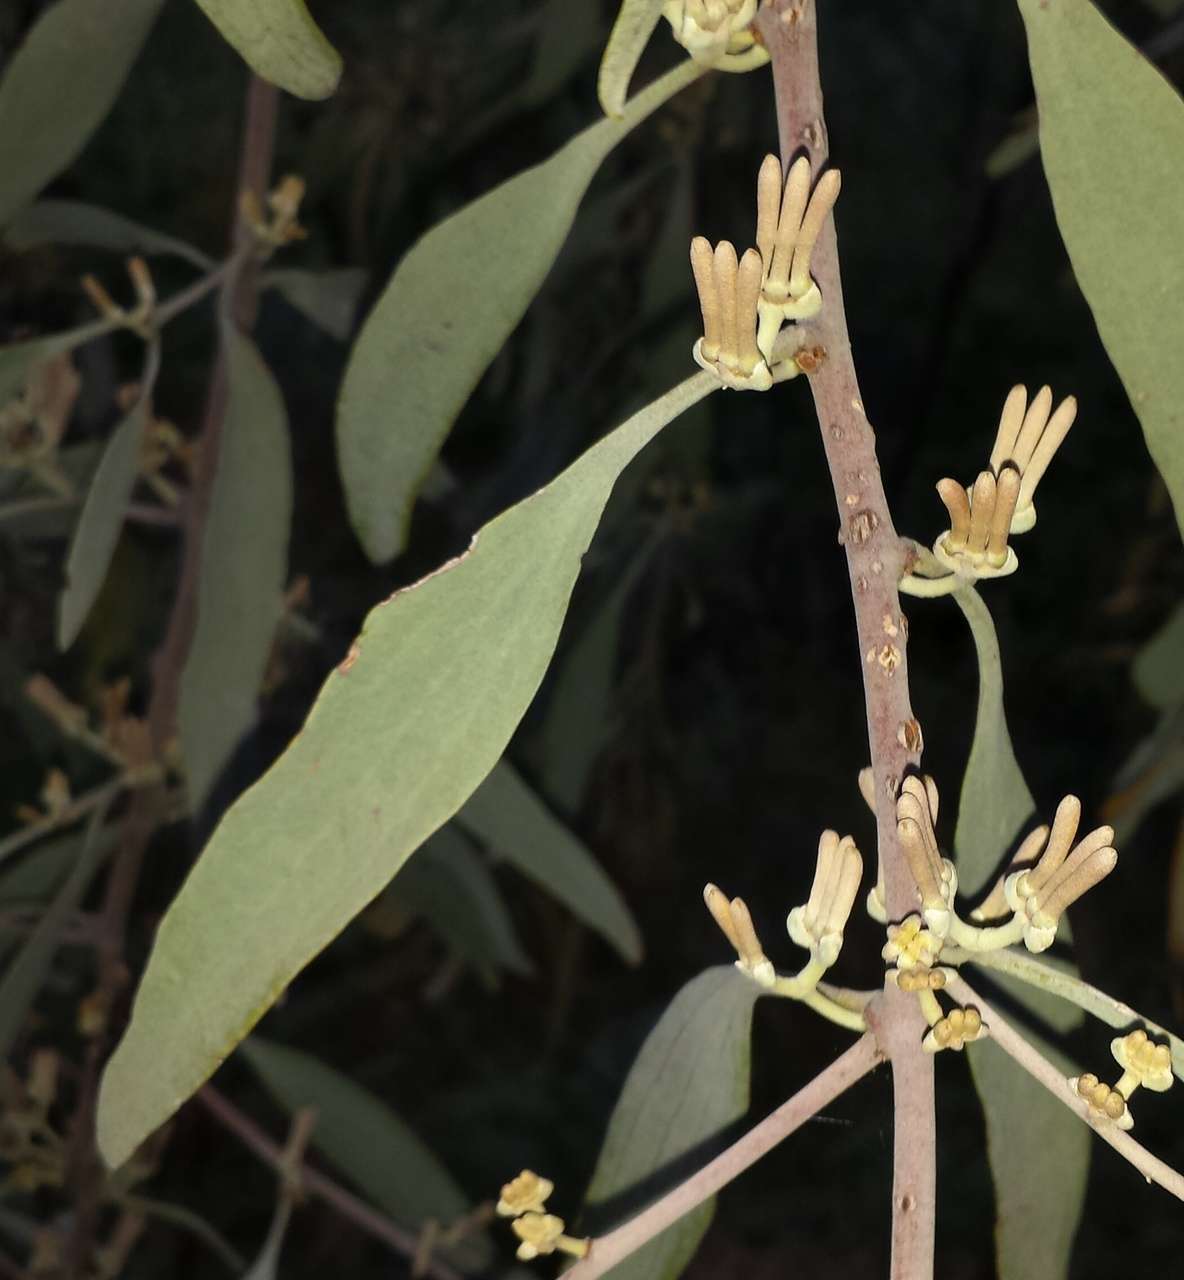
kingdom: Plantae
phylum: Tracheophyta
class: Magnoliopsida
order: Santalales
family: Loranthaceae
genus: Amyema
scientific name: Amyema quandang
